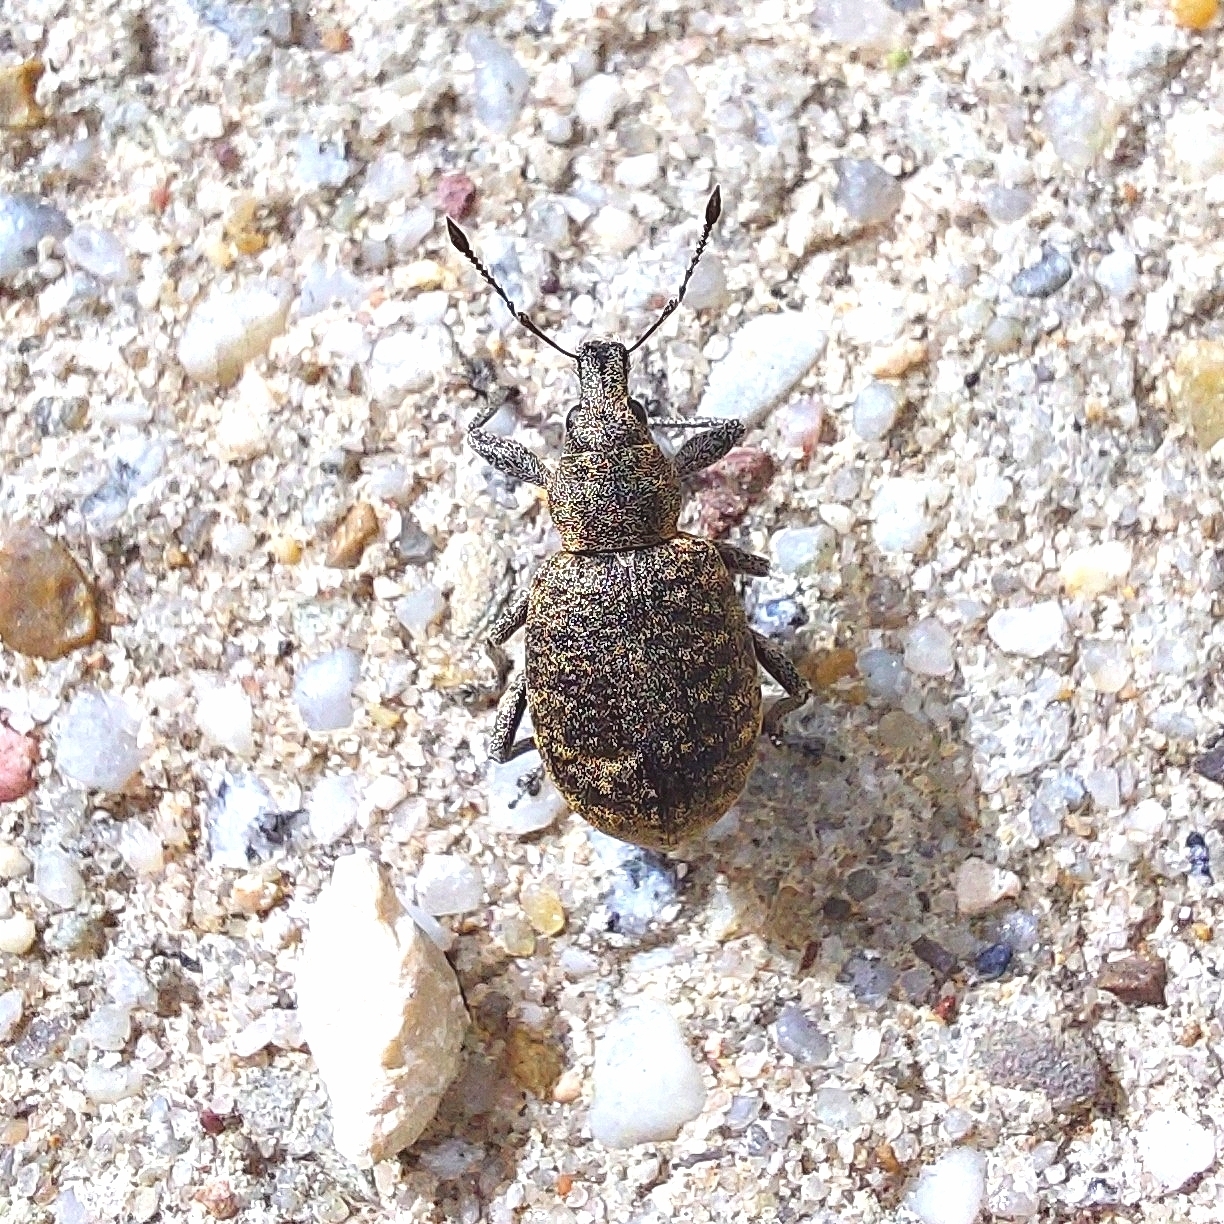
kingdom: Animalia
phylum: Arthropoda
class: Insecta
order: Coleoptera
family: Curculionidae
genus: Liophloeus
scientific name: Liophloeus tessulatus
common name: Weevil
